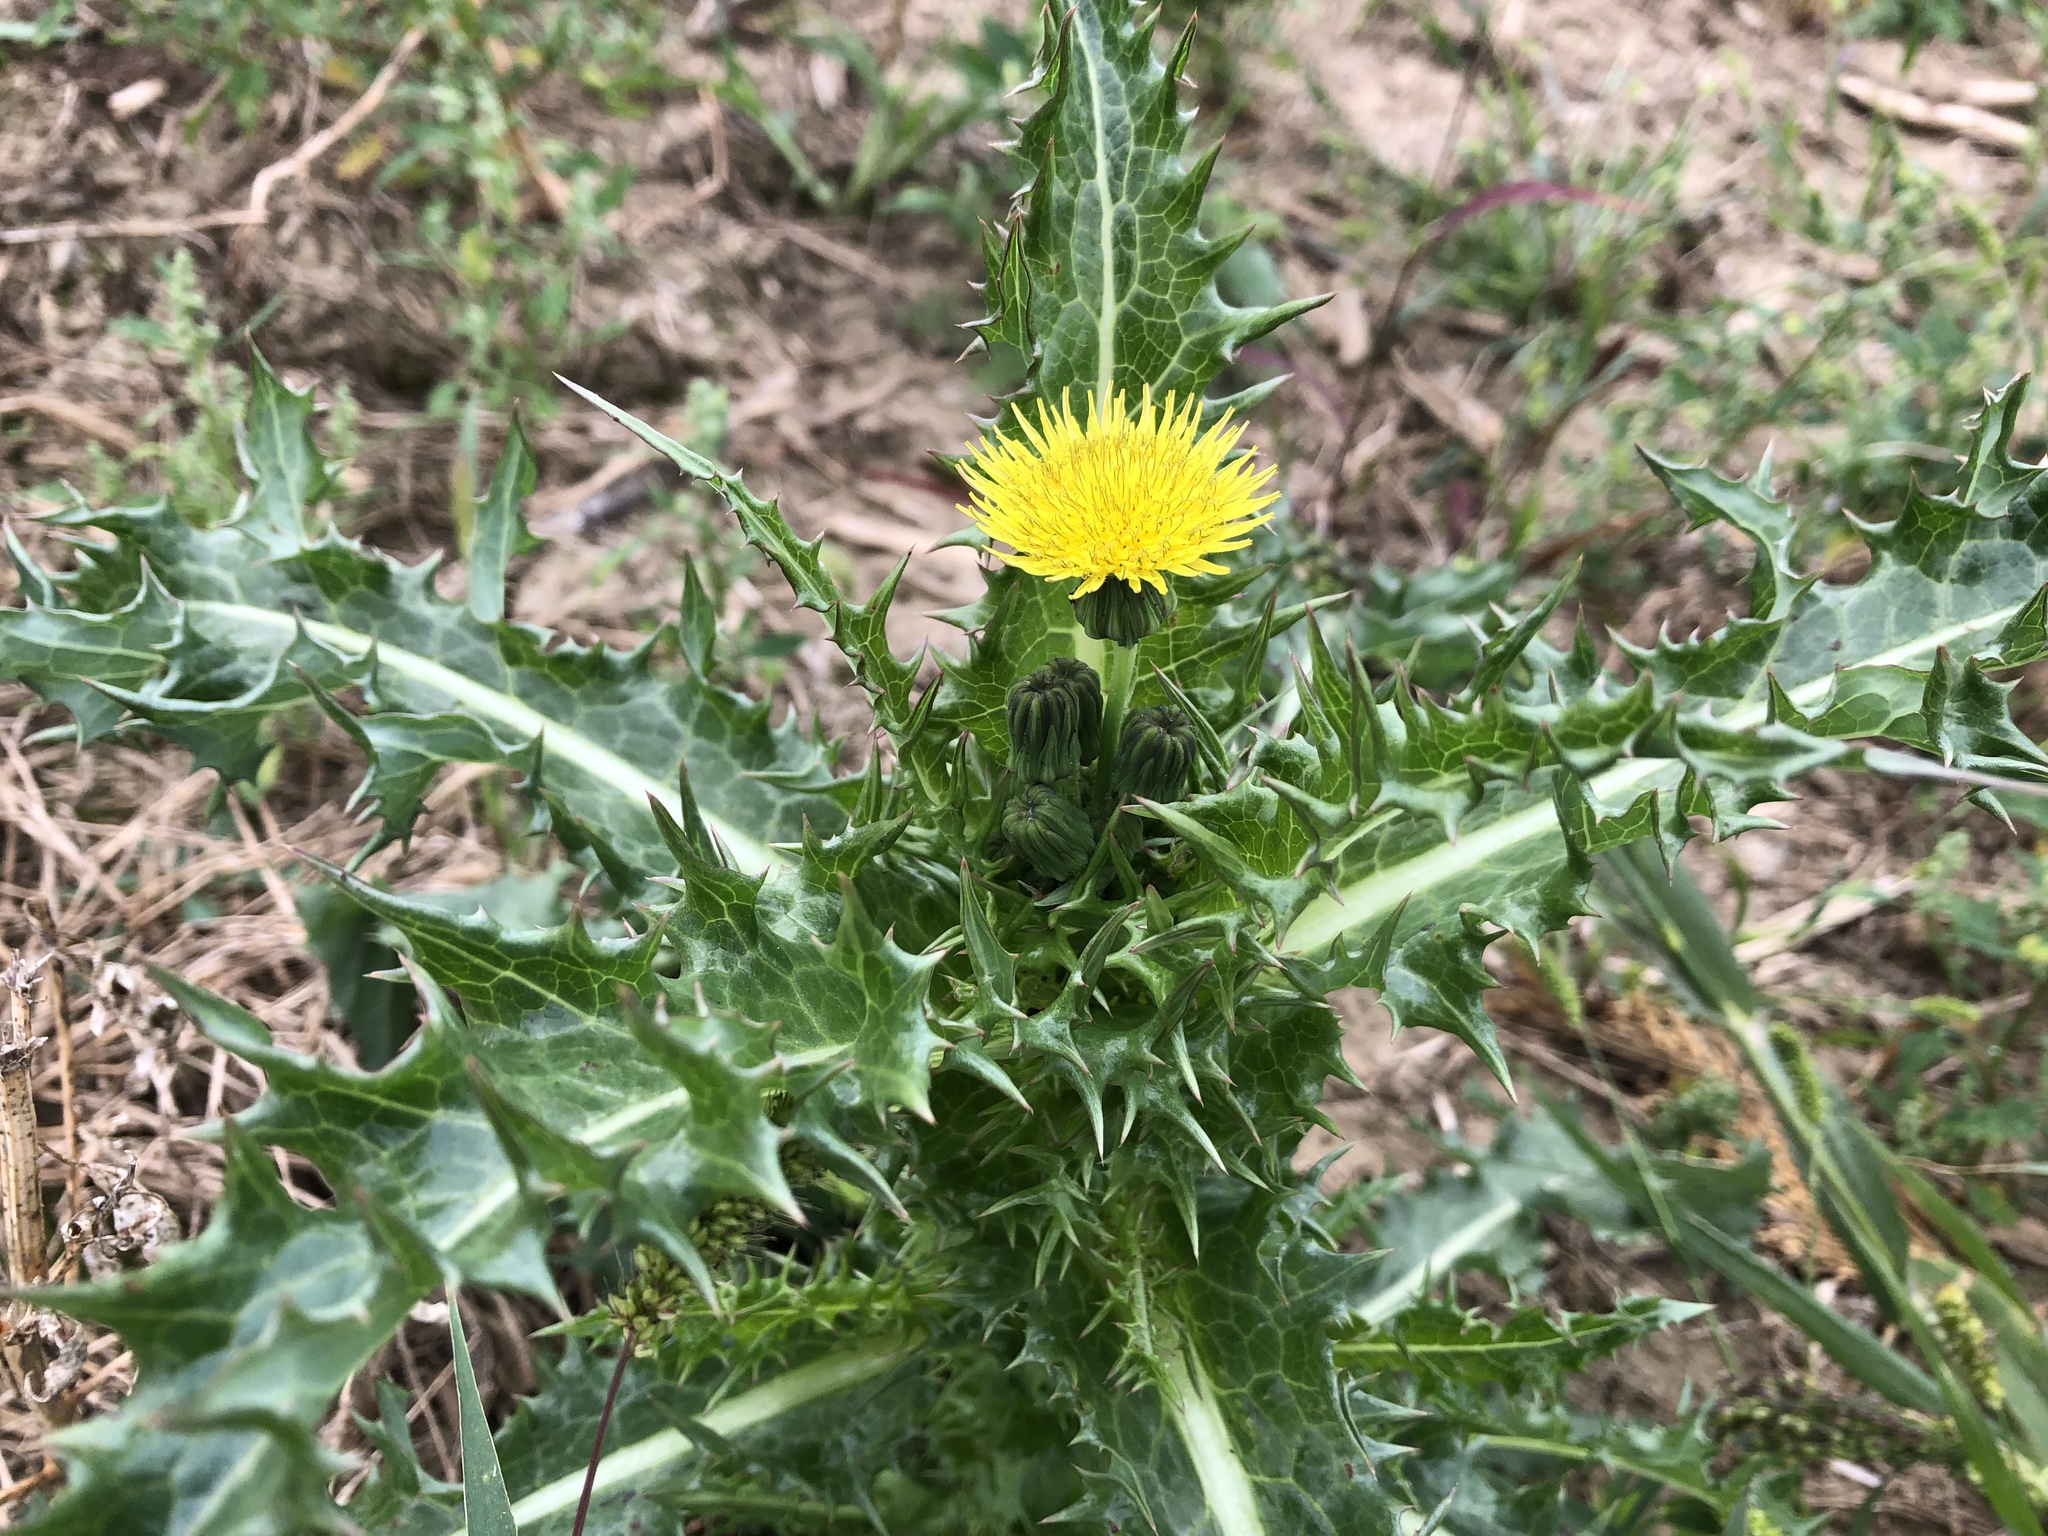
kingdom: Plantae
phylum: Tracheophyta
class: Magnoliopsida
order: Asterales
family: Asteraceae
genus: Sonchus
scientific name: Sonchus asper
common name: Prickly sow-thistle
